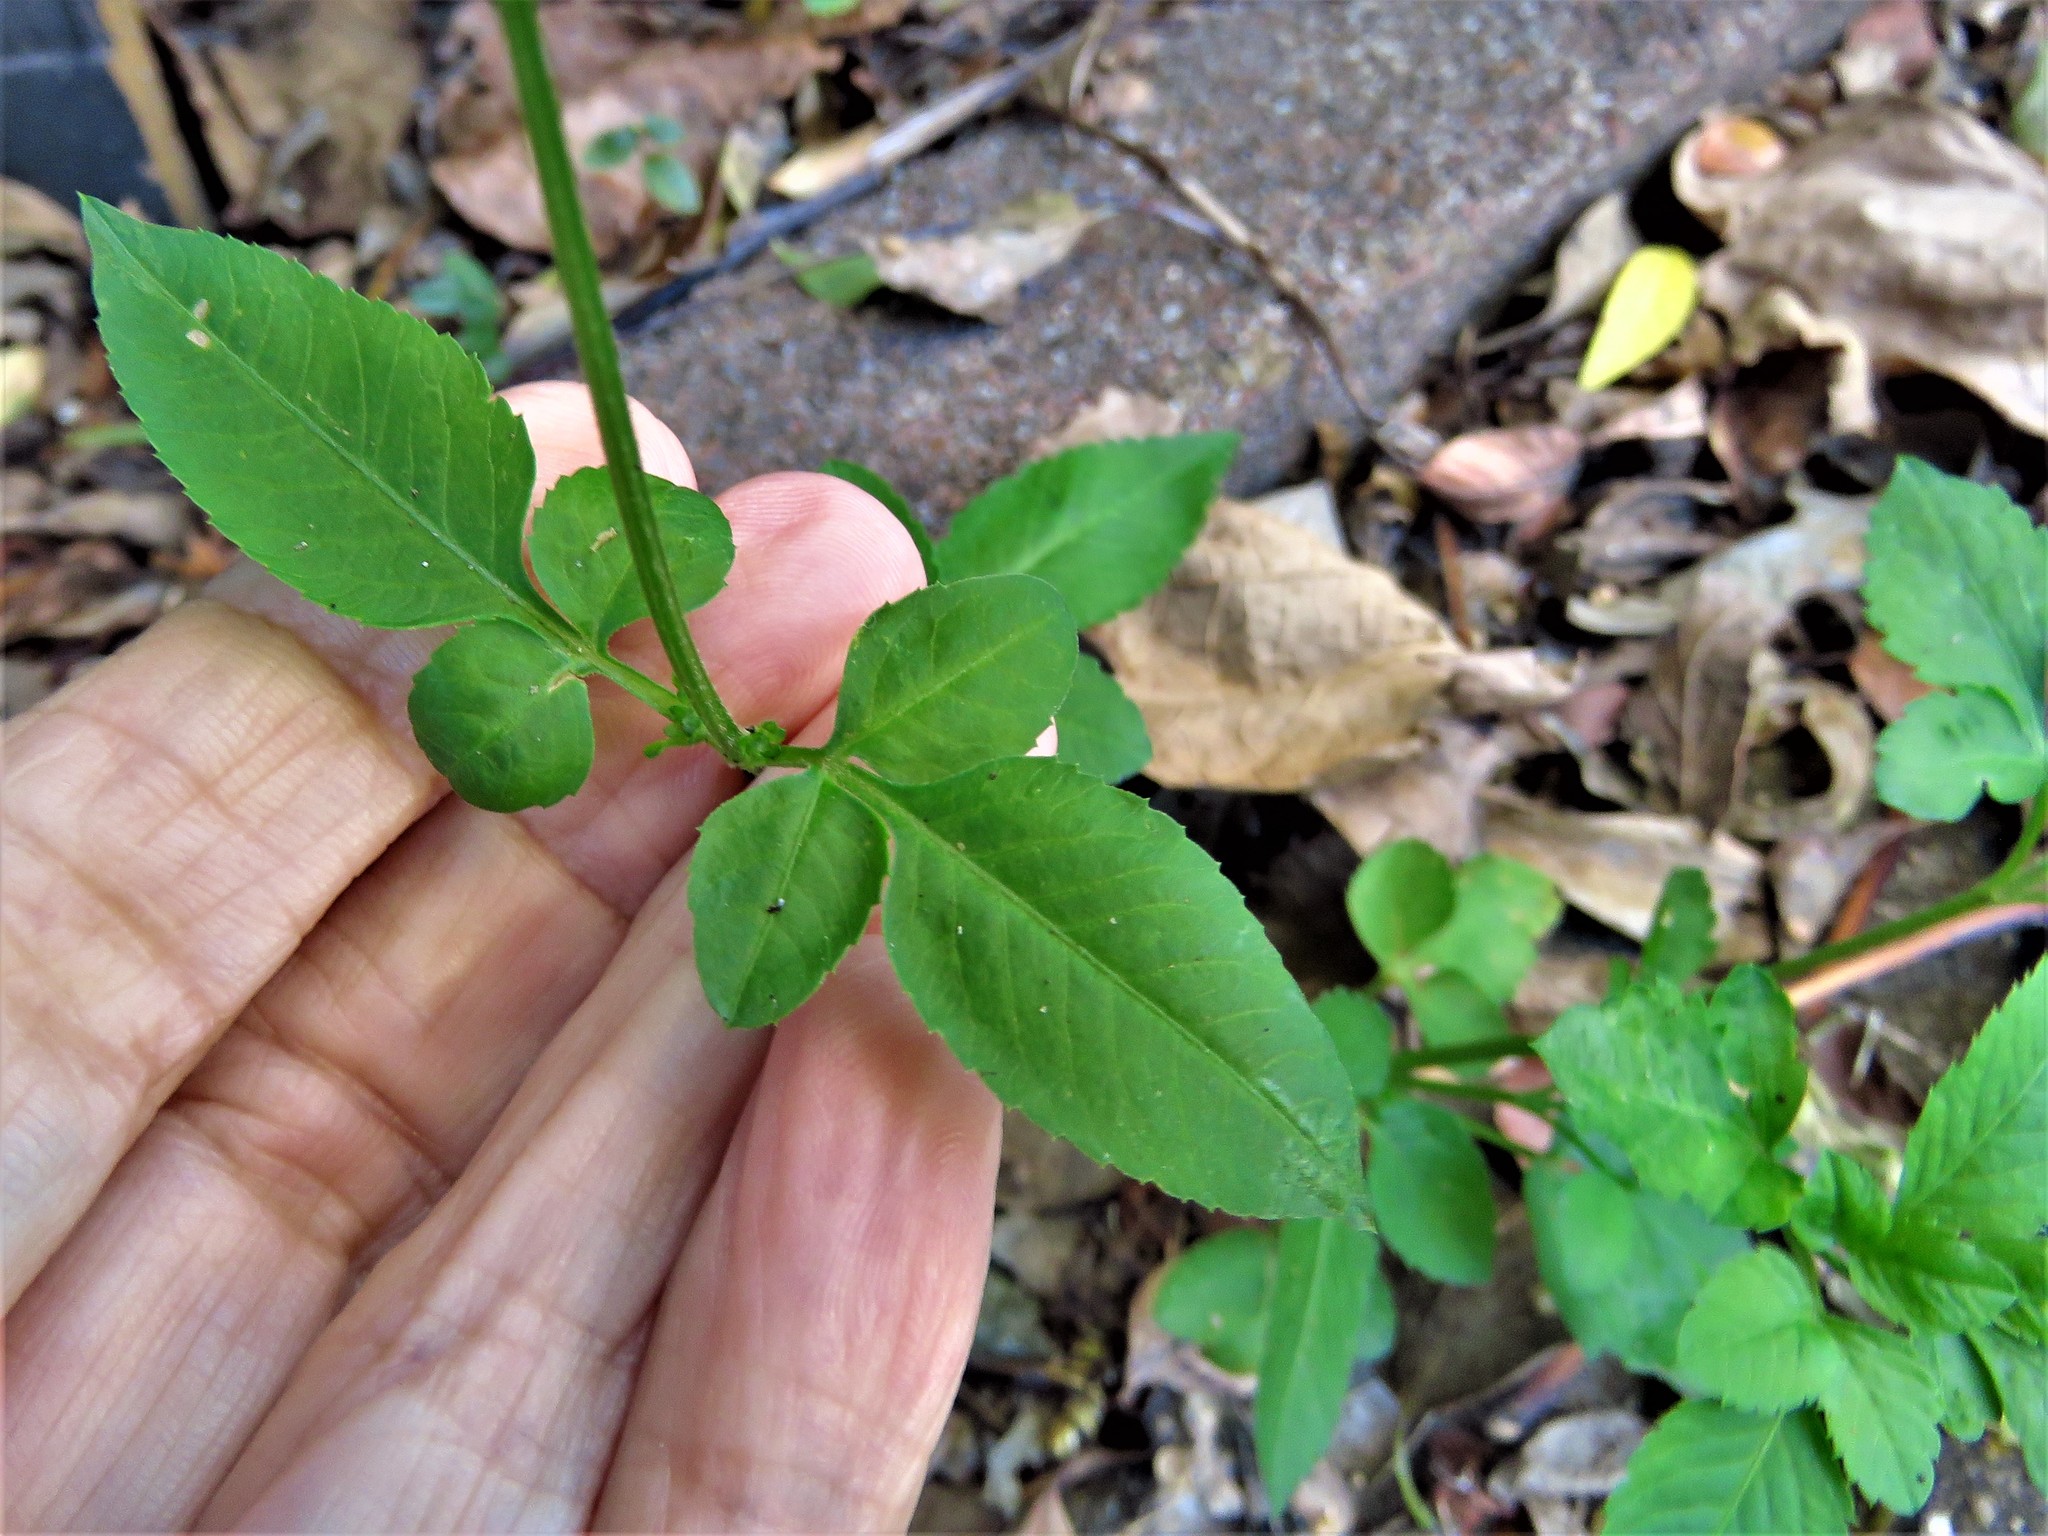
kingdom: Plantae
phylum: Tracheophyta
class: Magnoliopsida
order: Asterales
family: Asteraceae
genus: Bidens
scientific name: Bidens alba
